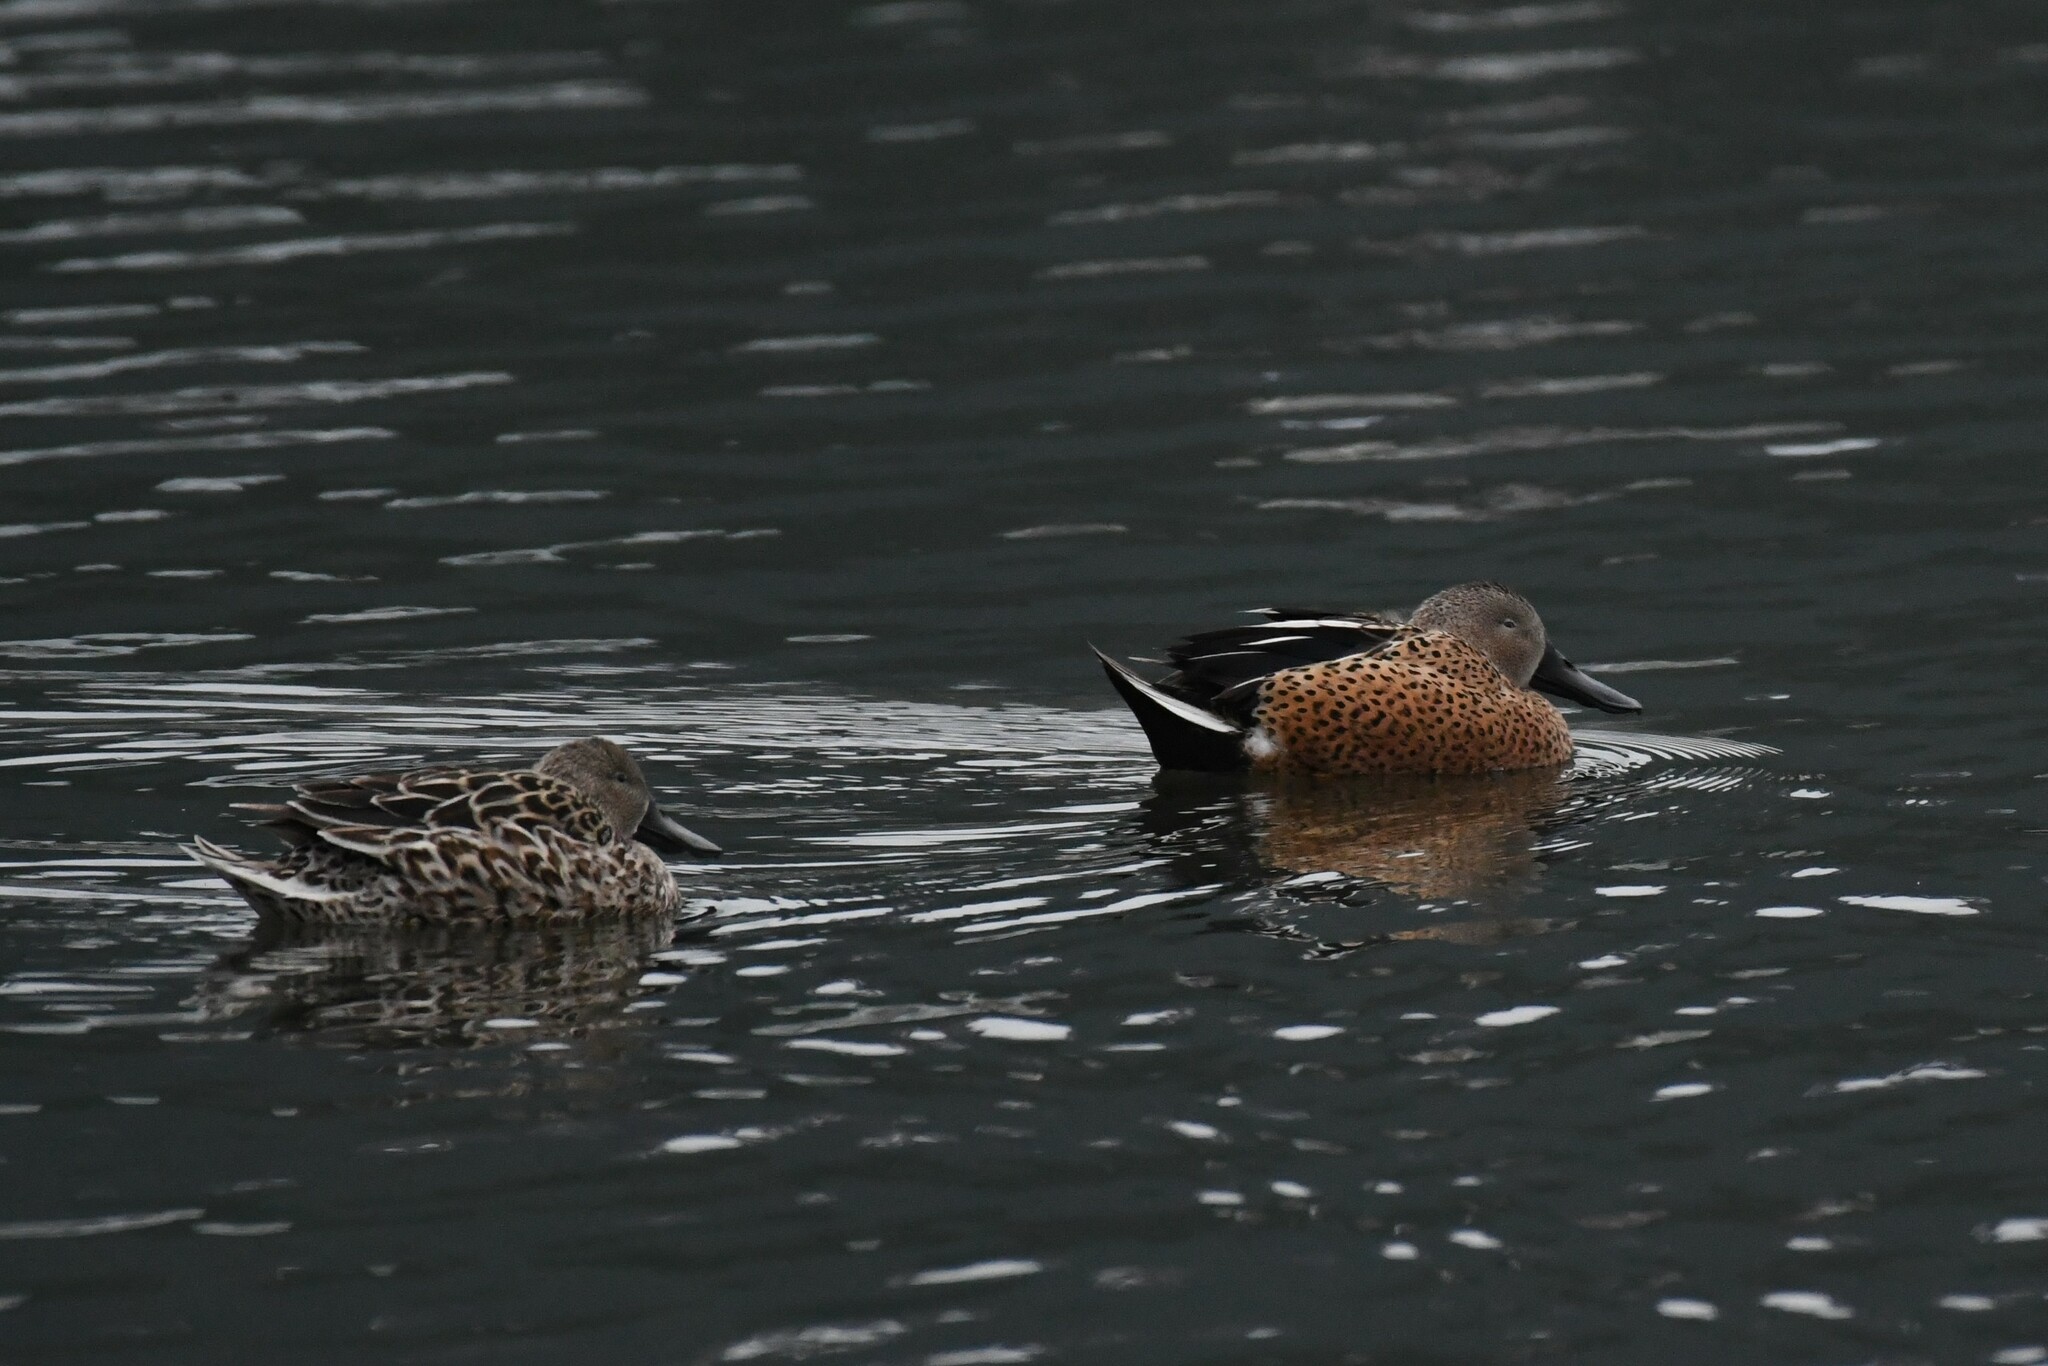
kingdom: Animalia
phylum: Chordata
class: Aves
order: Anseriformes
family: Anatidae
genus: Spatula
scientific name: Spatula platalea
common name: Red shoveler
